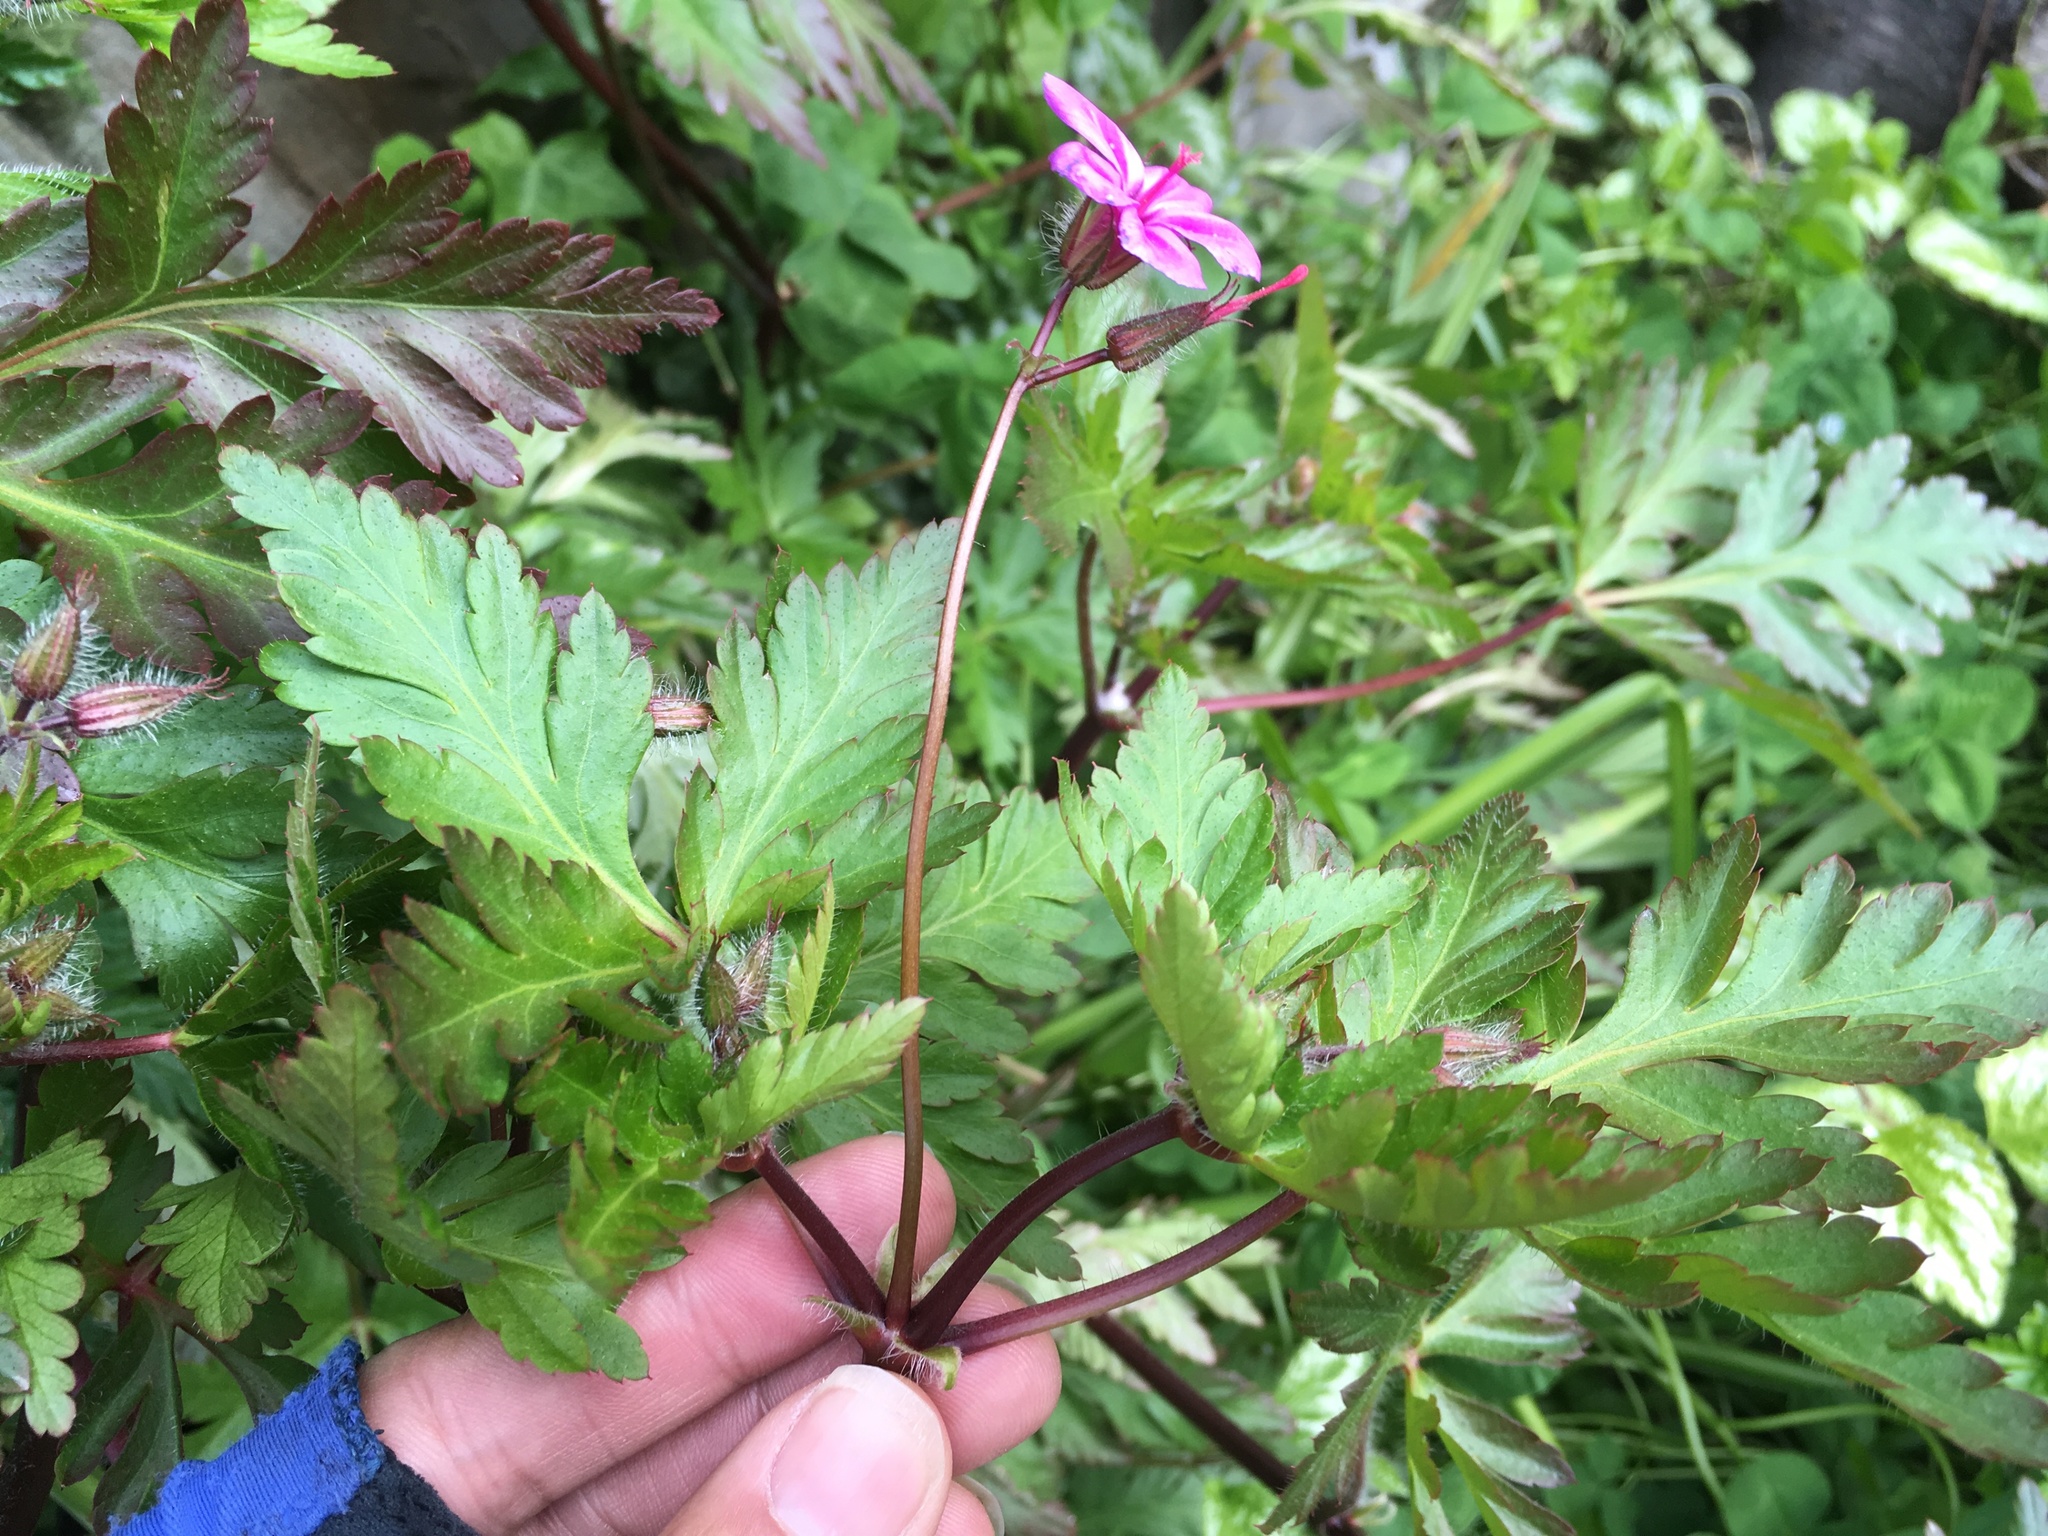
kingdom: Plantae
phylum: Tracheophyta
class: Magnoliopsida
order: Geraniales
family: Geraniaceae
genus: Geranium
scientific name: Geranium yeoi
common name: Greater herb robert
